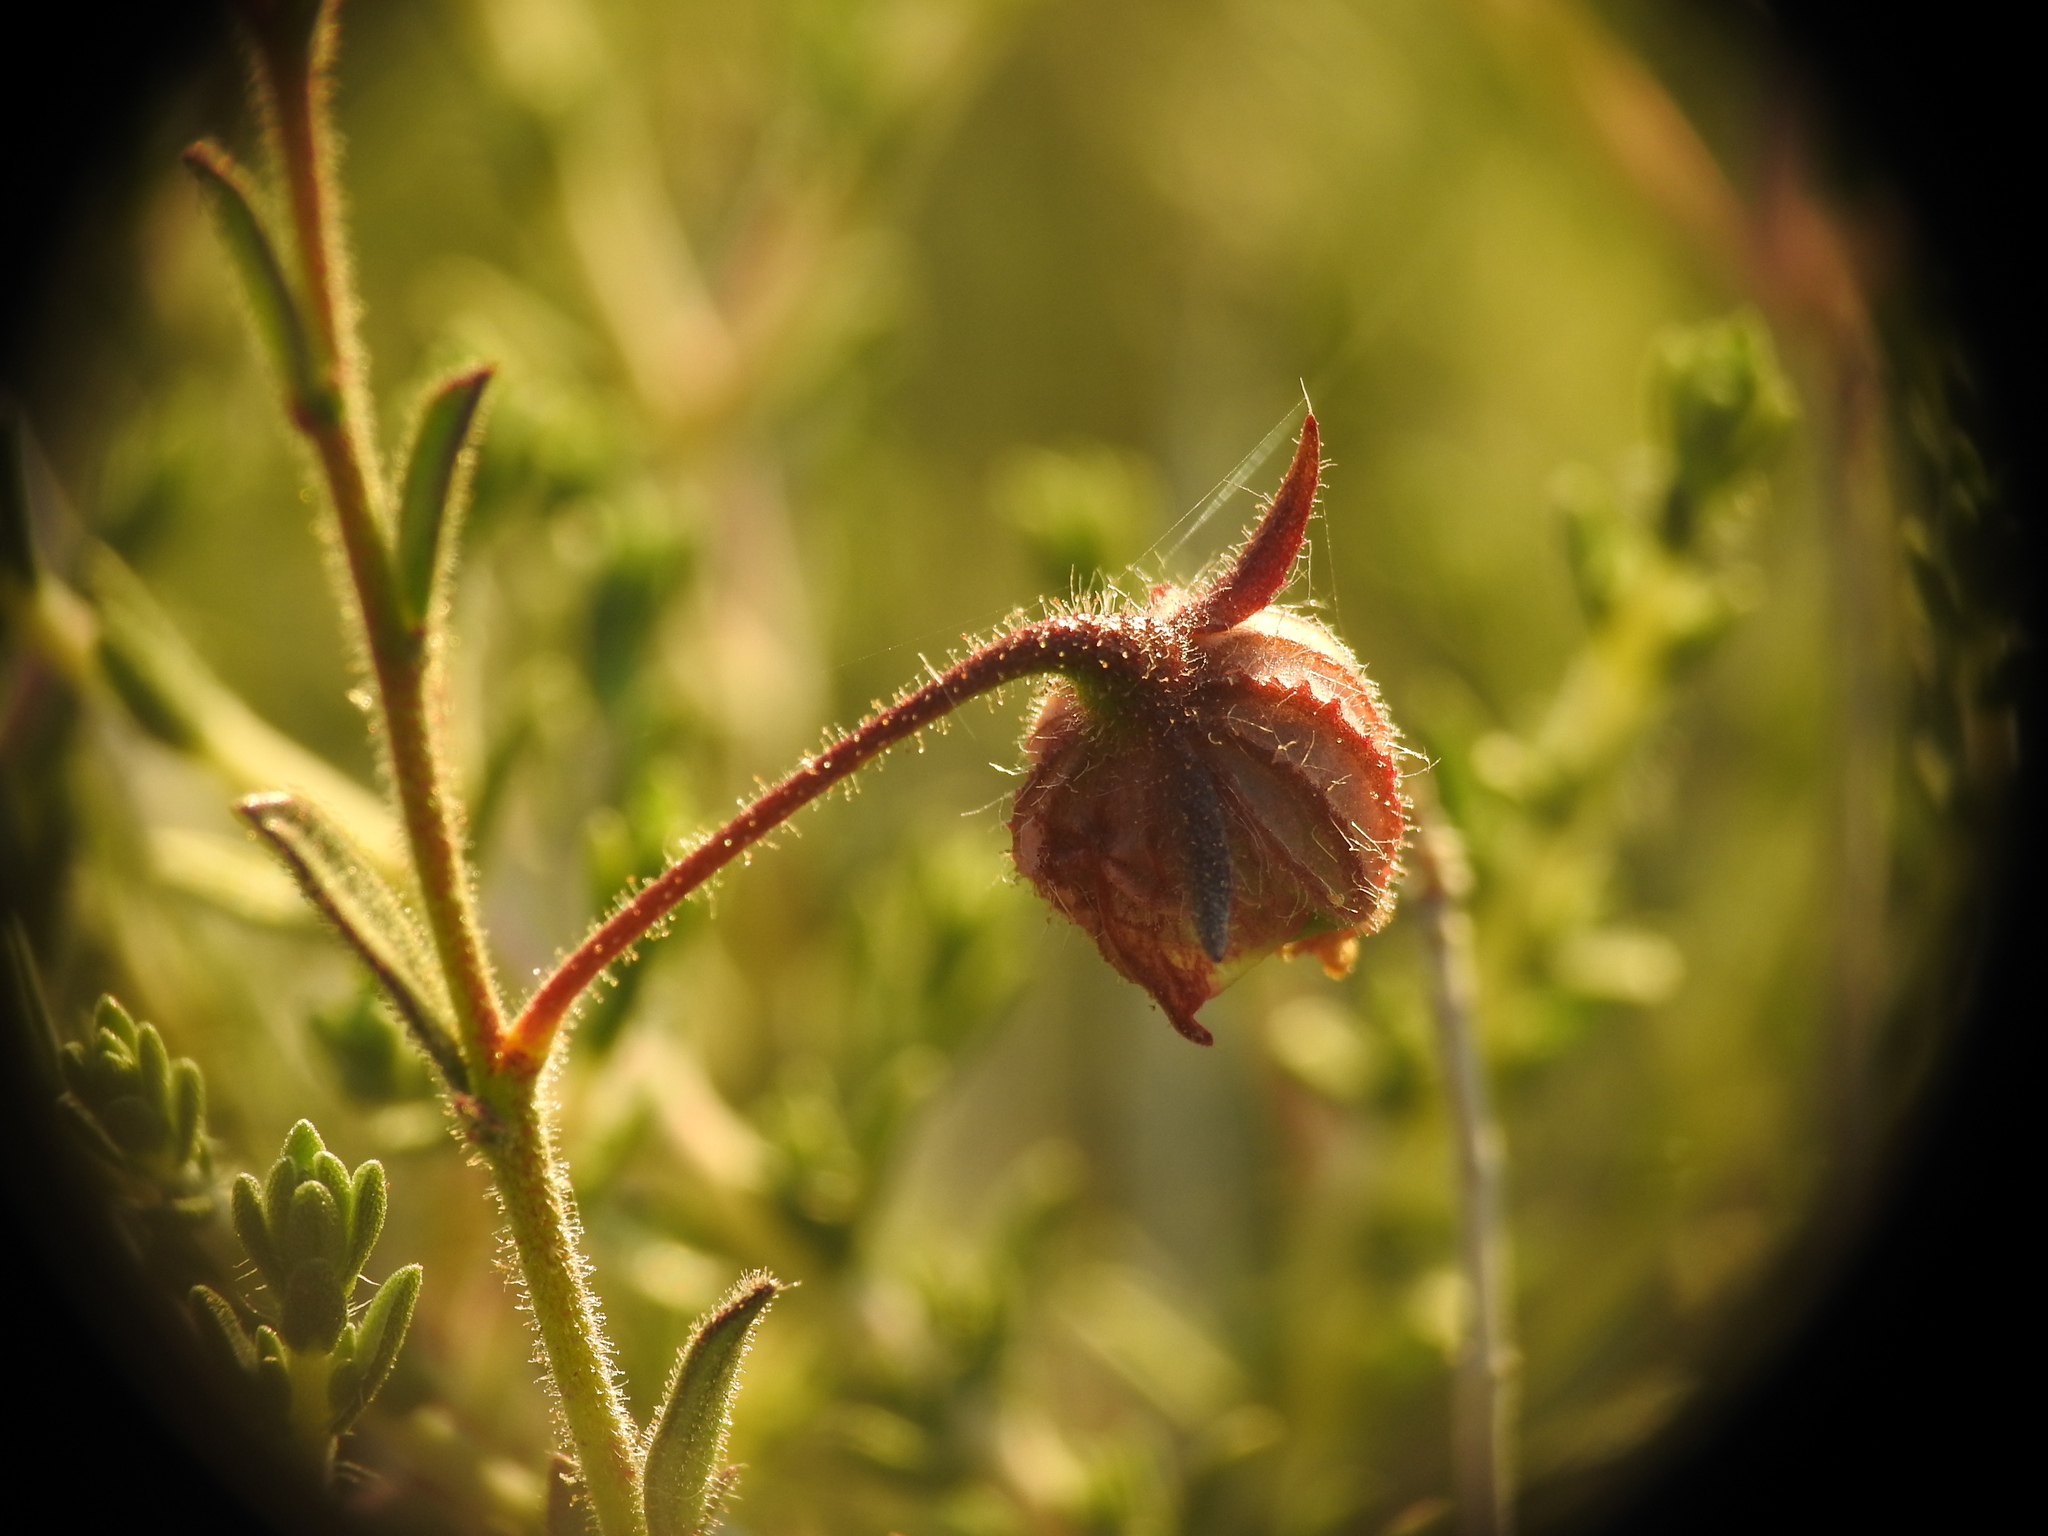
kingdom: Plantae
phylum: Tracheophyta
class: Magnoliopsida
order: Malvales
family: Cistaceae
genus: Fumana
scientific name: Fumana arabica
